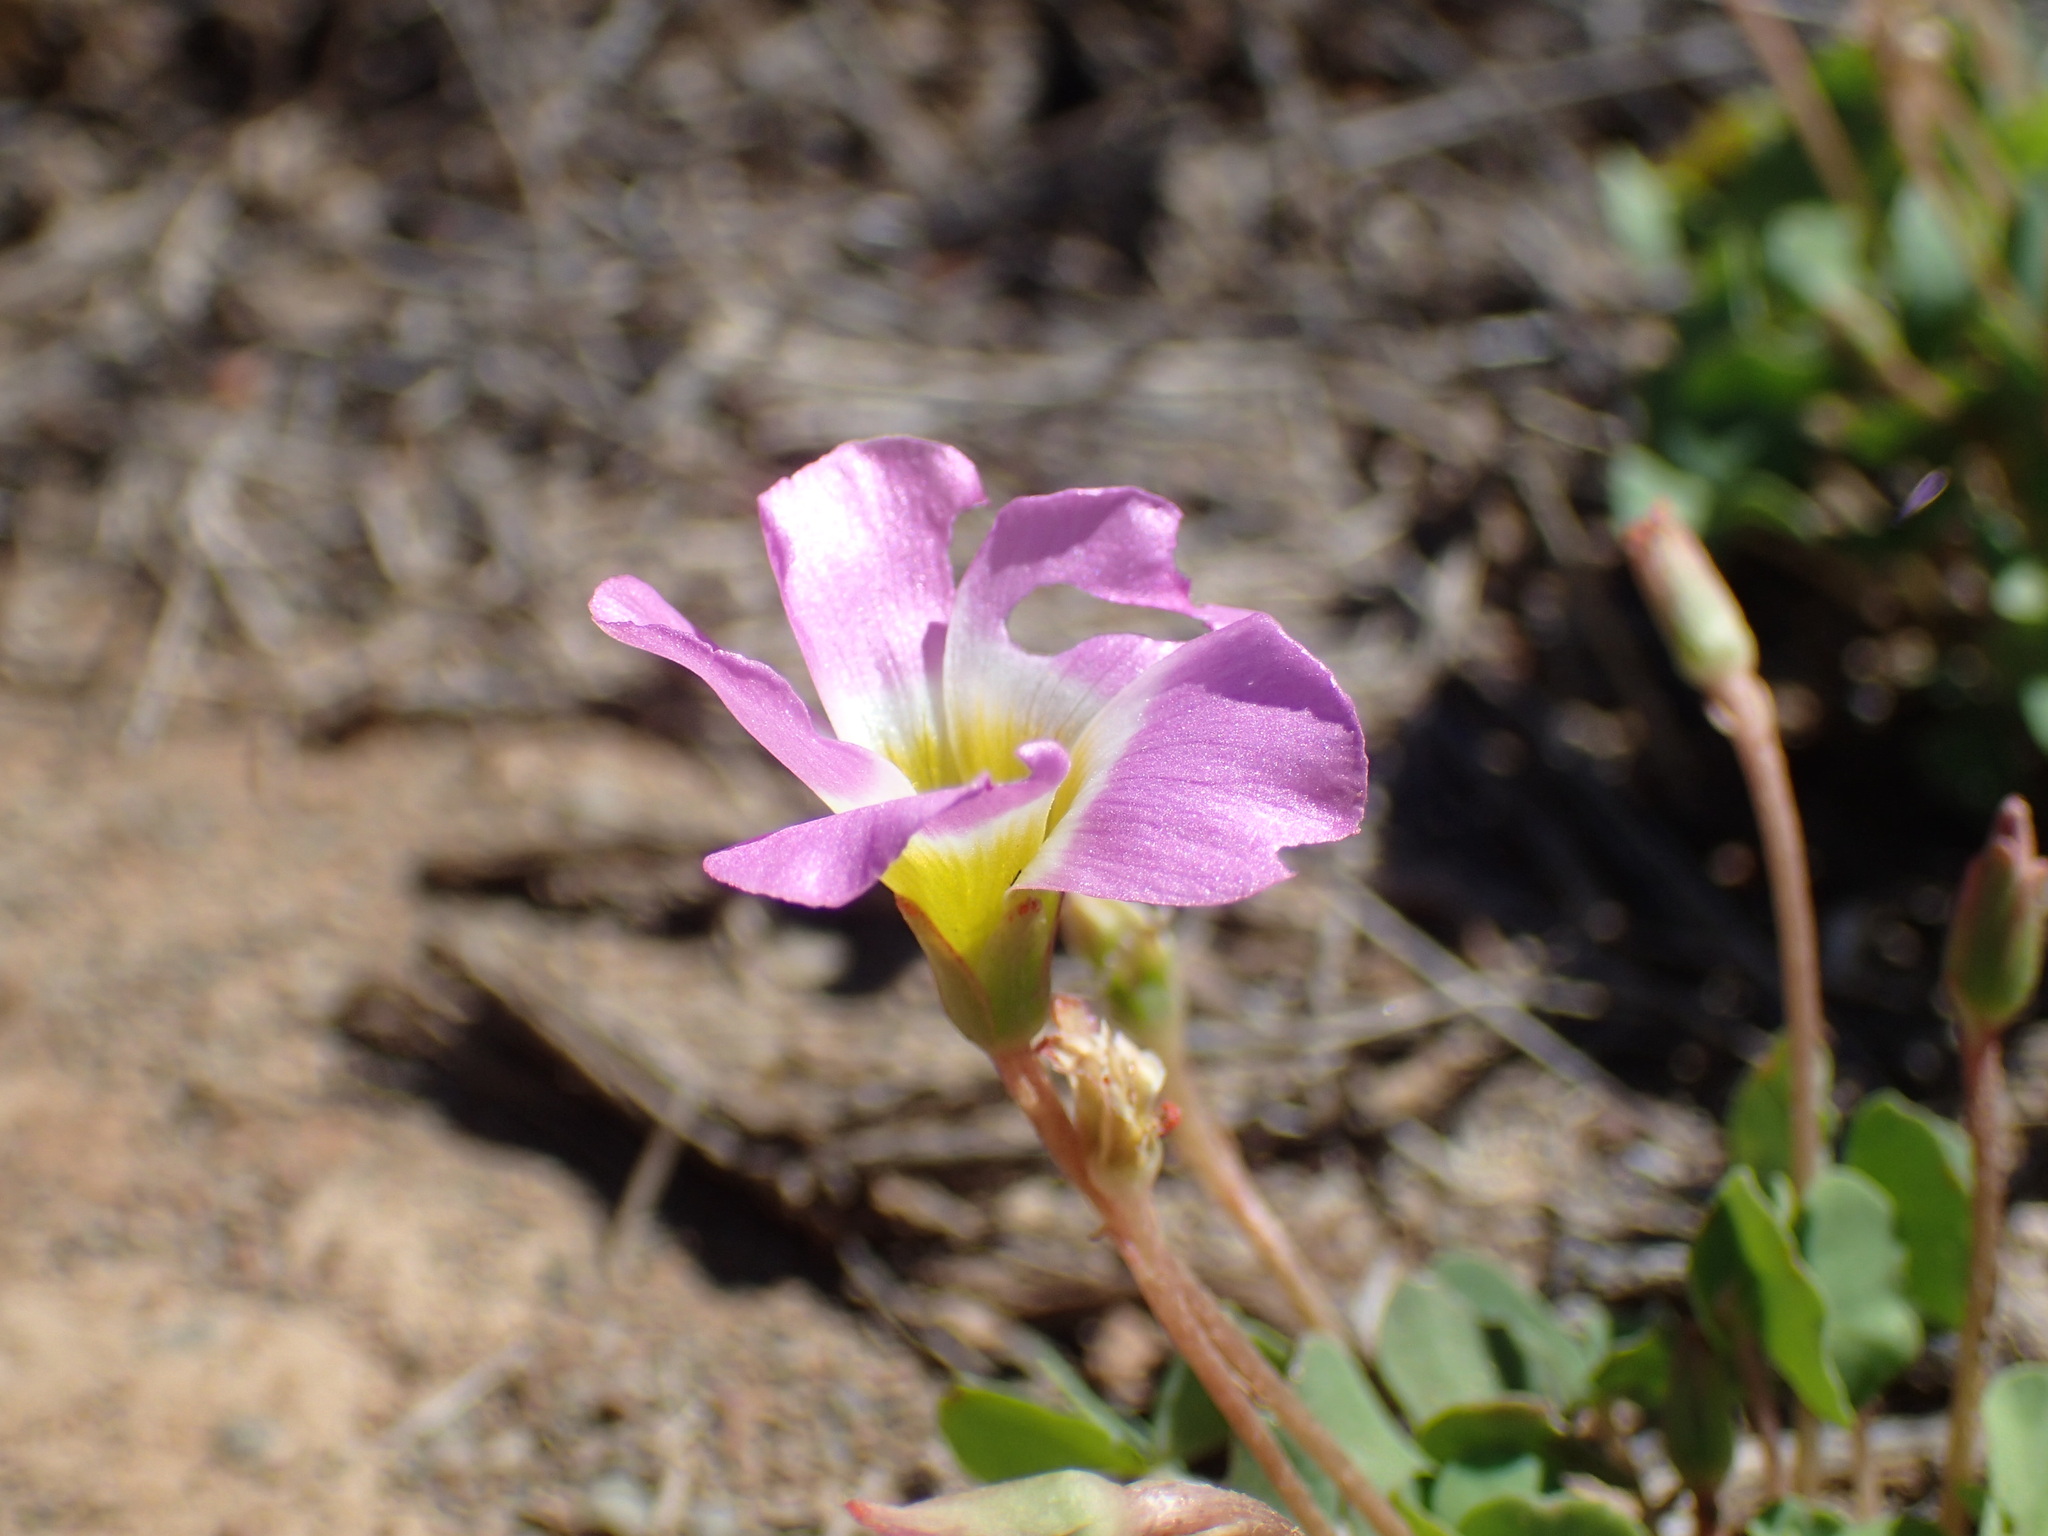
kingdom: Plantae
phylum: Tracheophyta
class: Magnoliopsida
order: Oxalidales
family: Oxalidaceae
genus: Oxalis
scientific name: Oxalis obliquifolia
